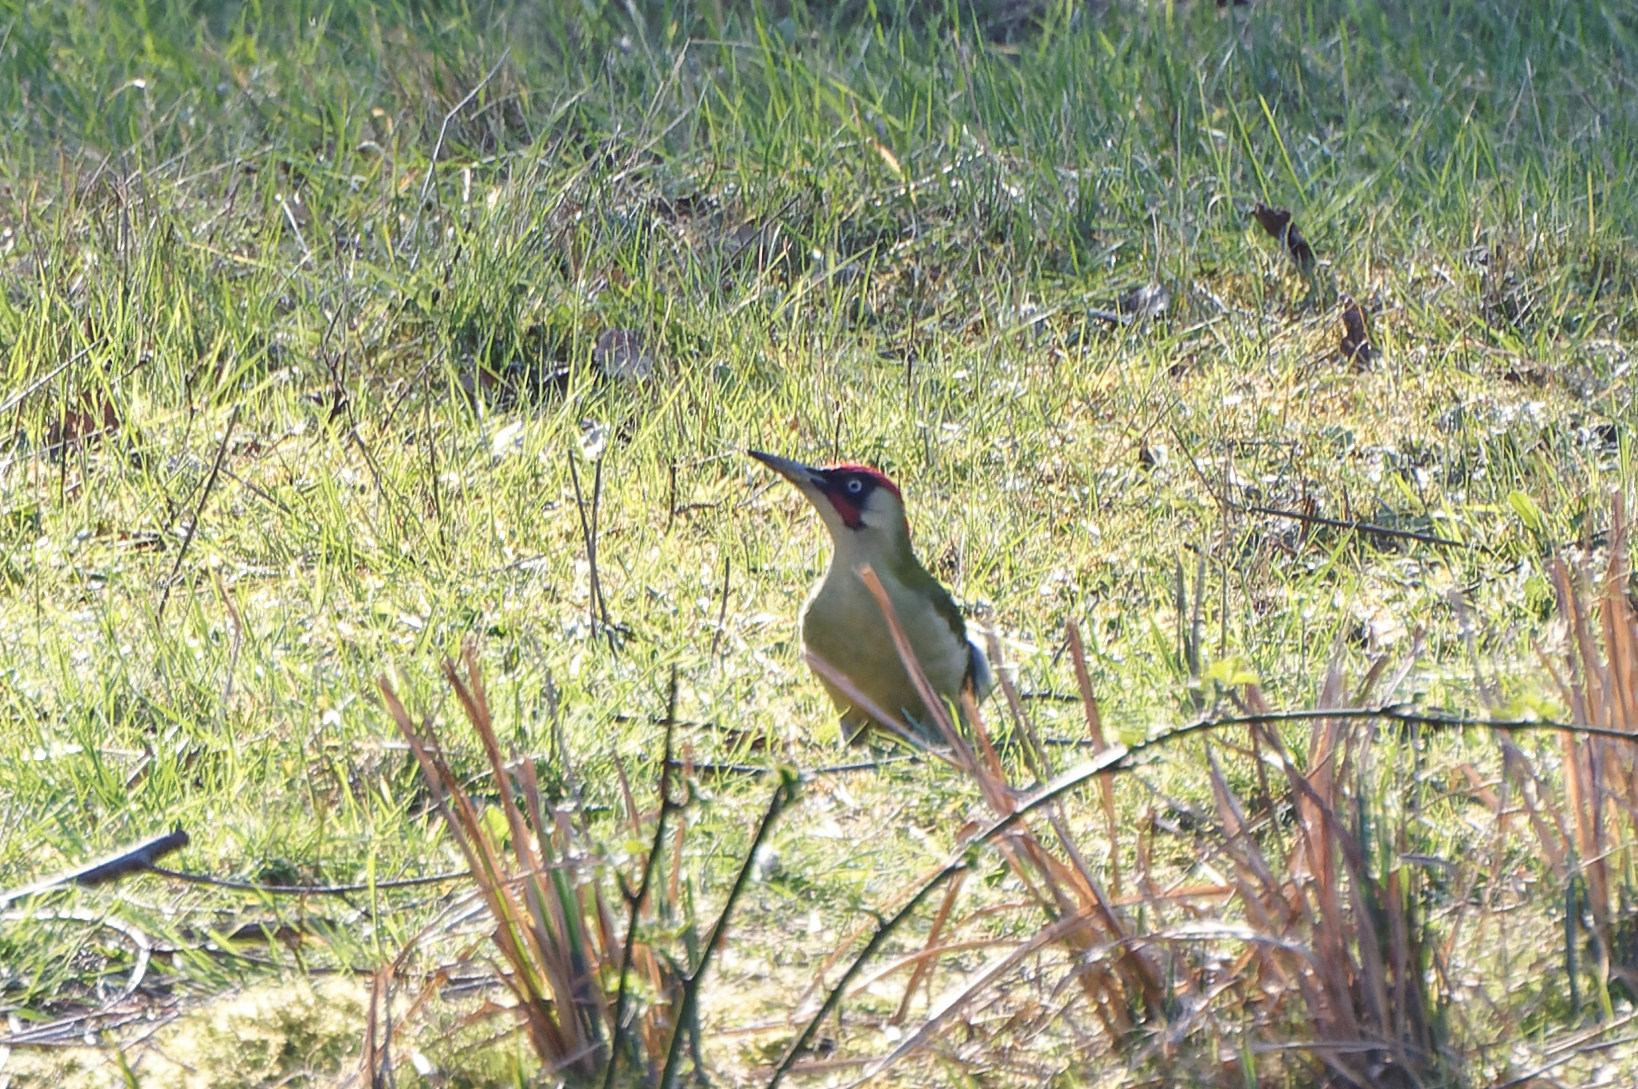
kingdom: Animalia
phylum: Chordata
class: Aves
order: Piciformes
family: Picidae
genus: Picus
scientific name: Picus viridis
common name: European green woodpecker
